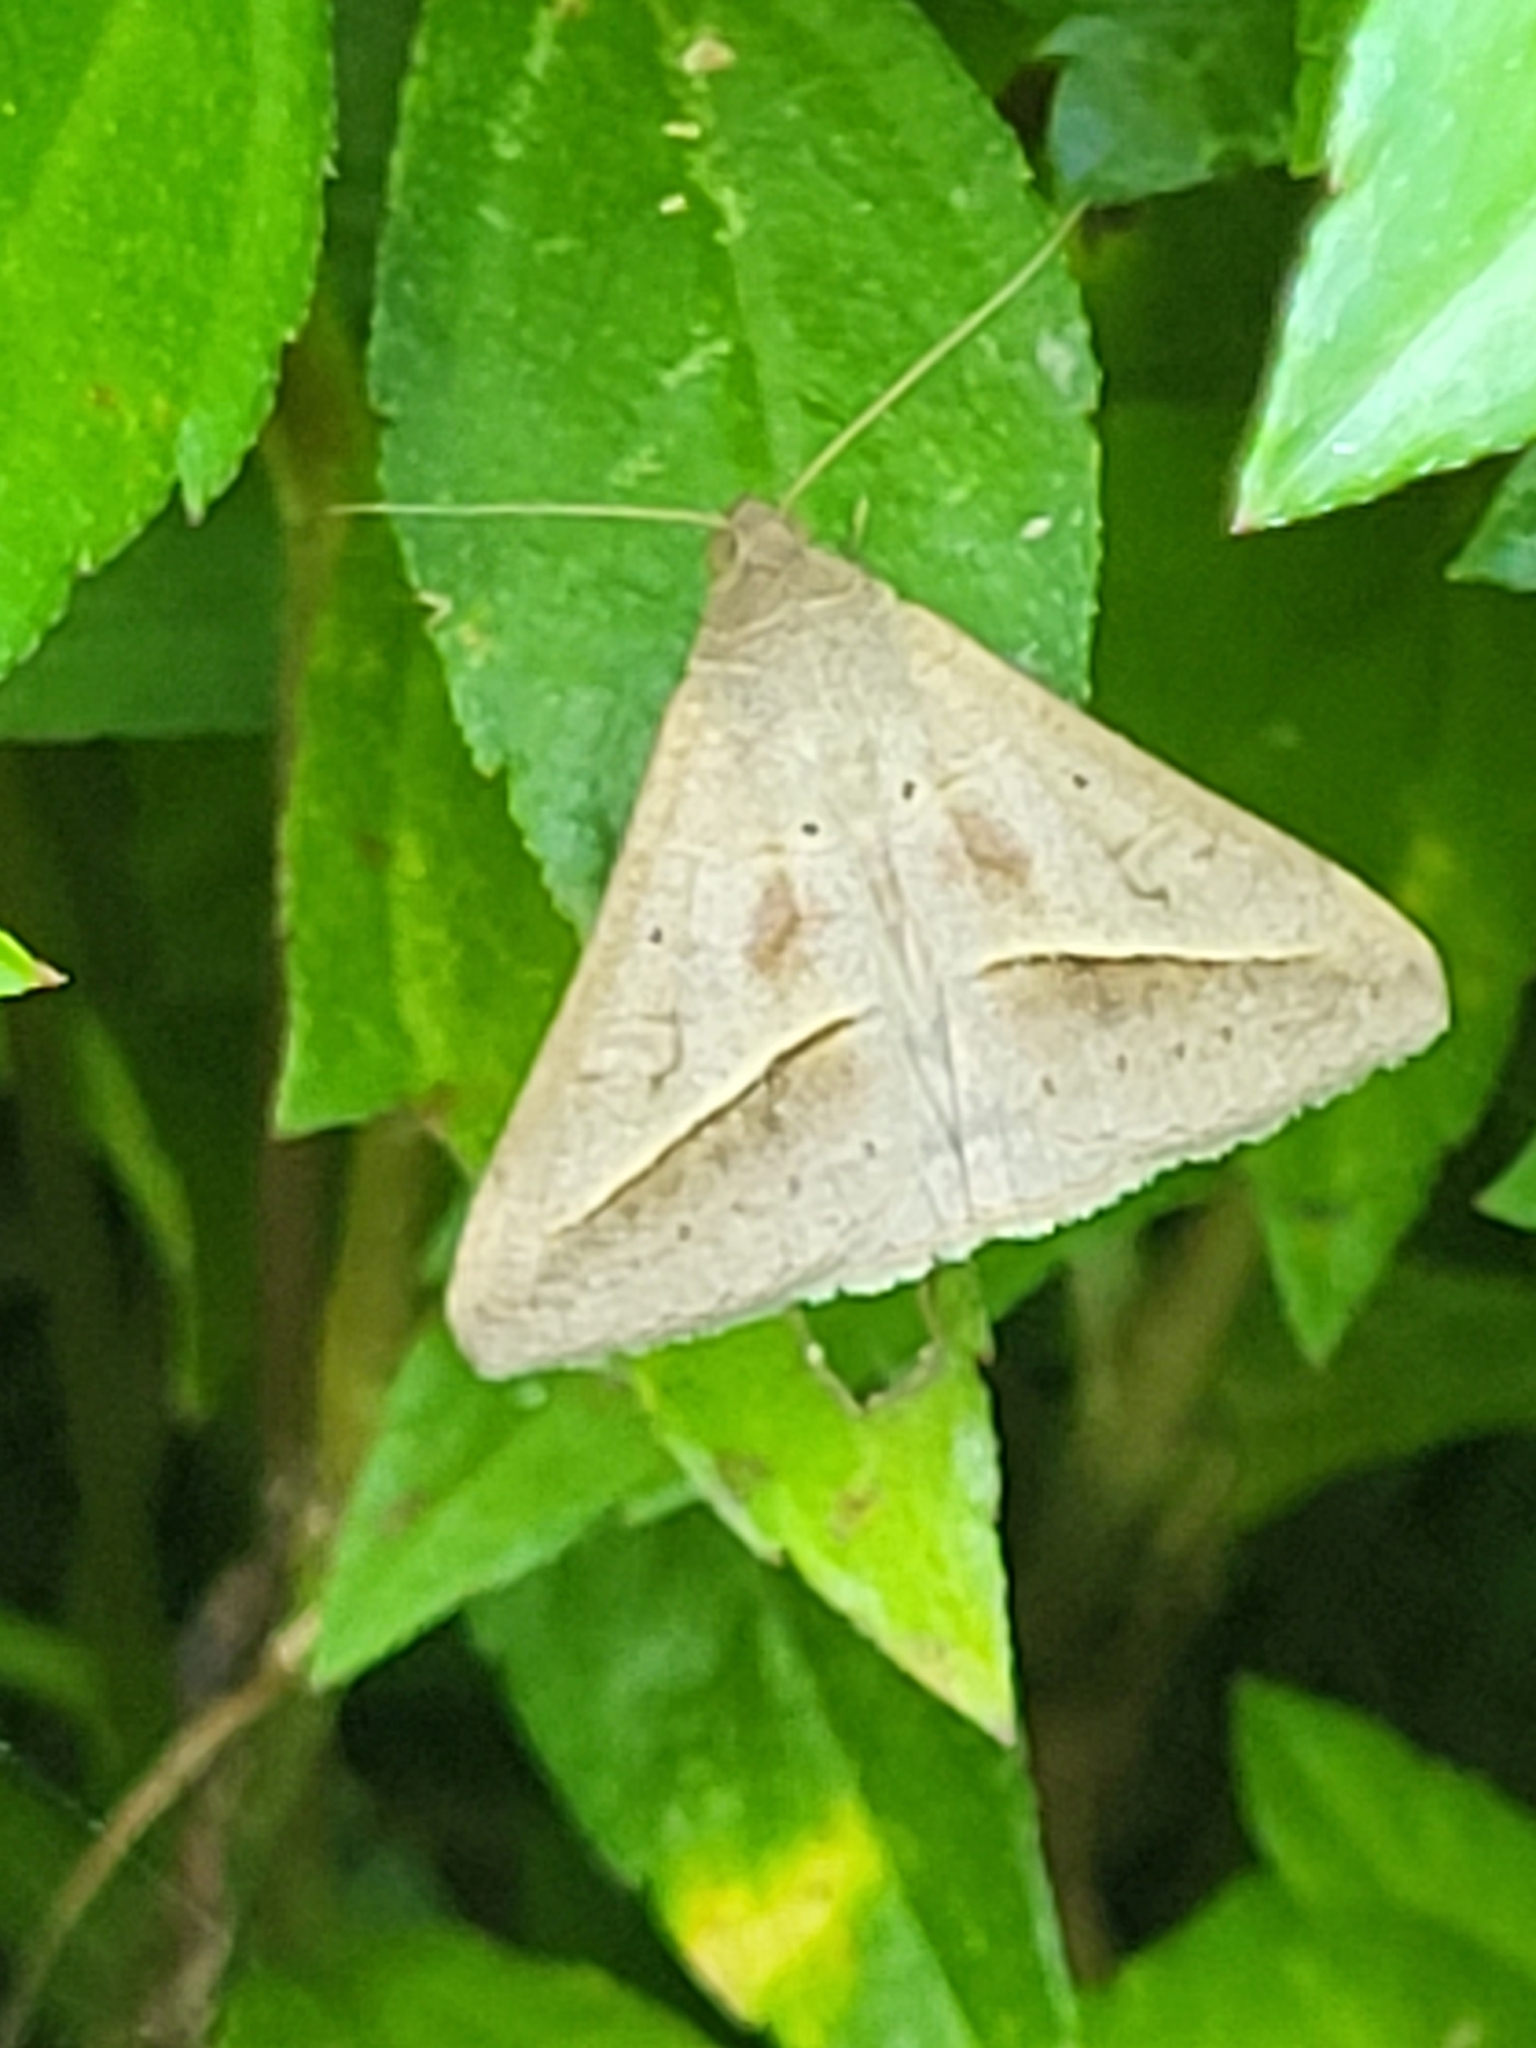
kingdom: Animalia
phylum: Arthropoda
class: Insecta
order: Lepidoptera
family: Erebidae
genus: Mocis
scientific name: Mocis frugalis
